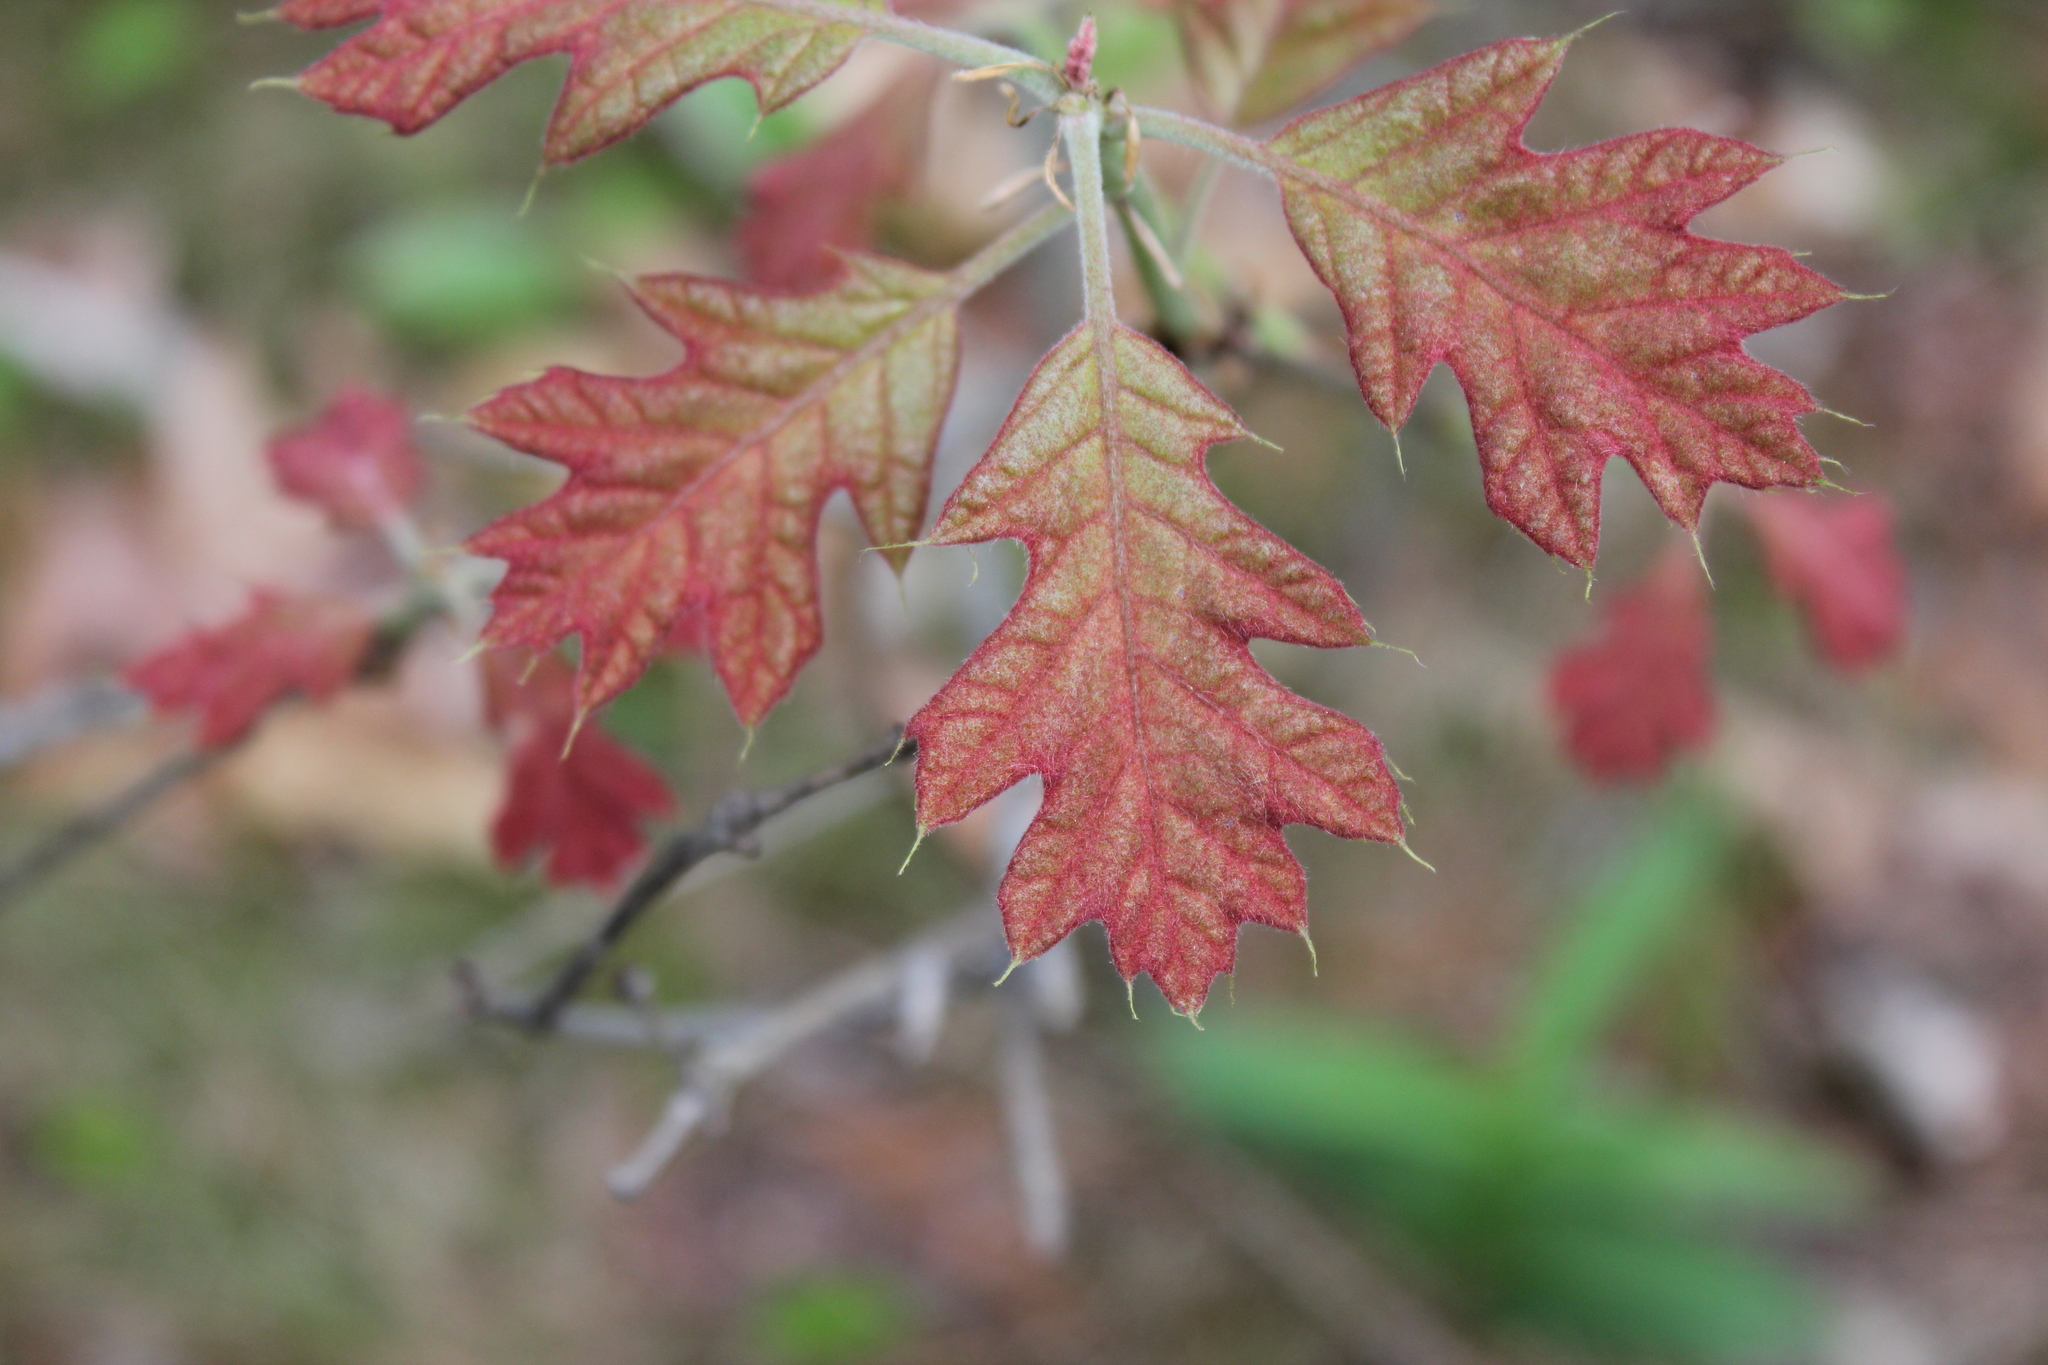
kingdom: Plantae
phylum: Tracheophyta
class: Magnoliopsida
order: Fagales
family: Fagaceae
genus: Quercus
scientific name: Quercus velutina
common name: Black oak
